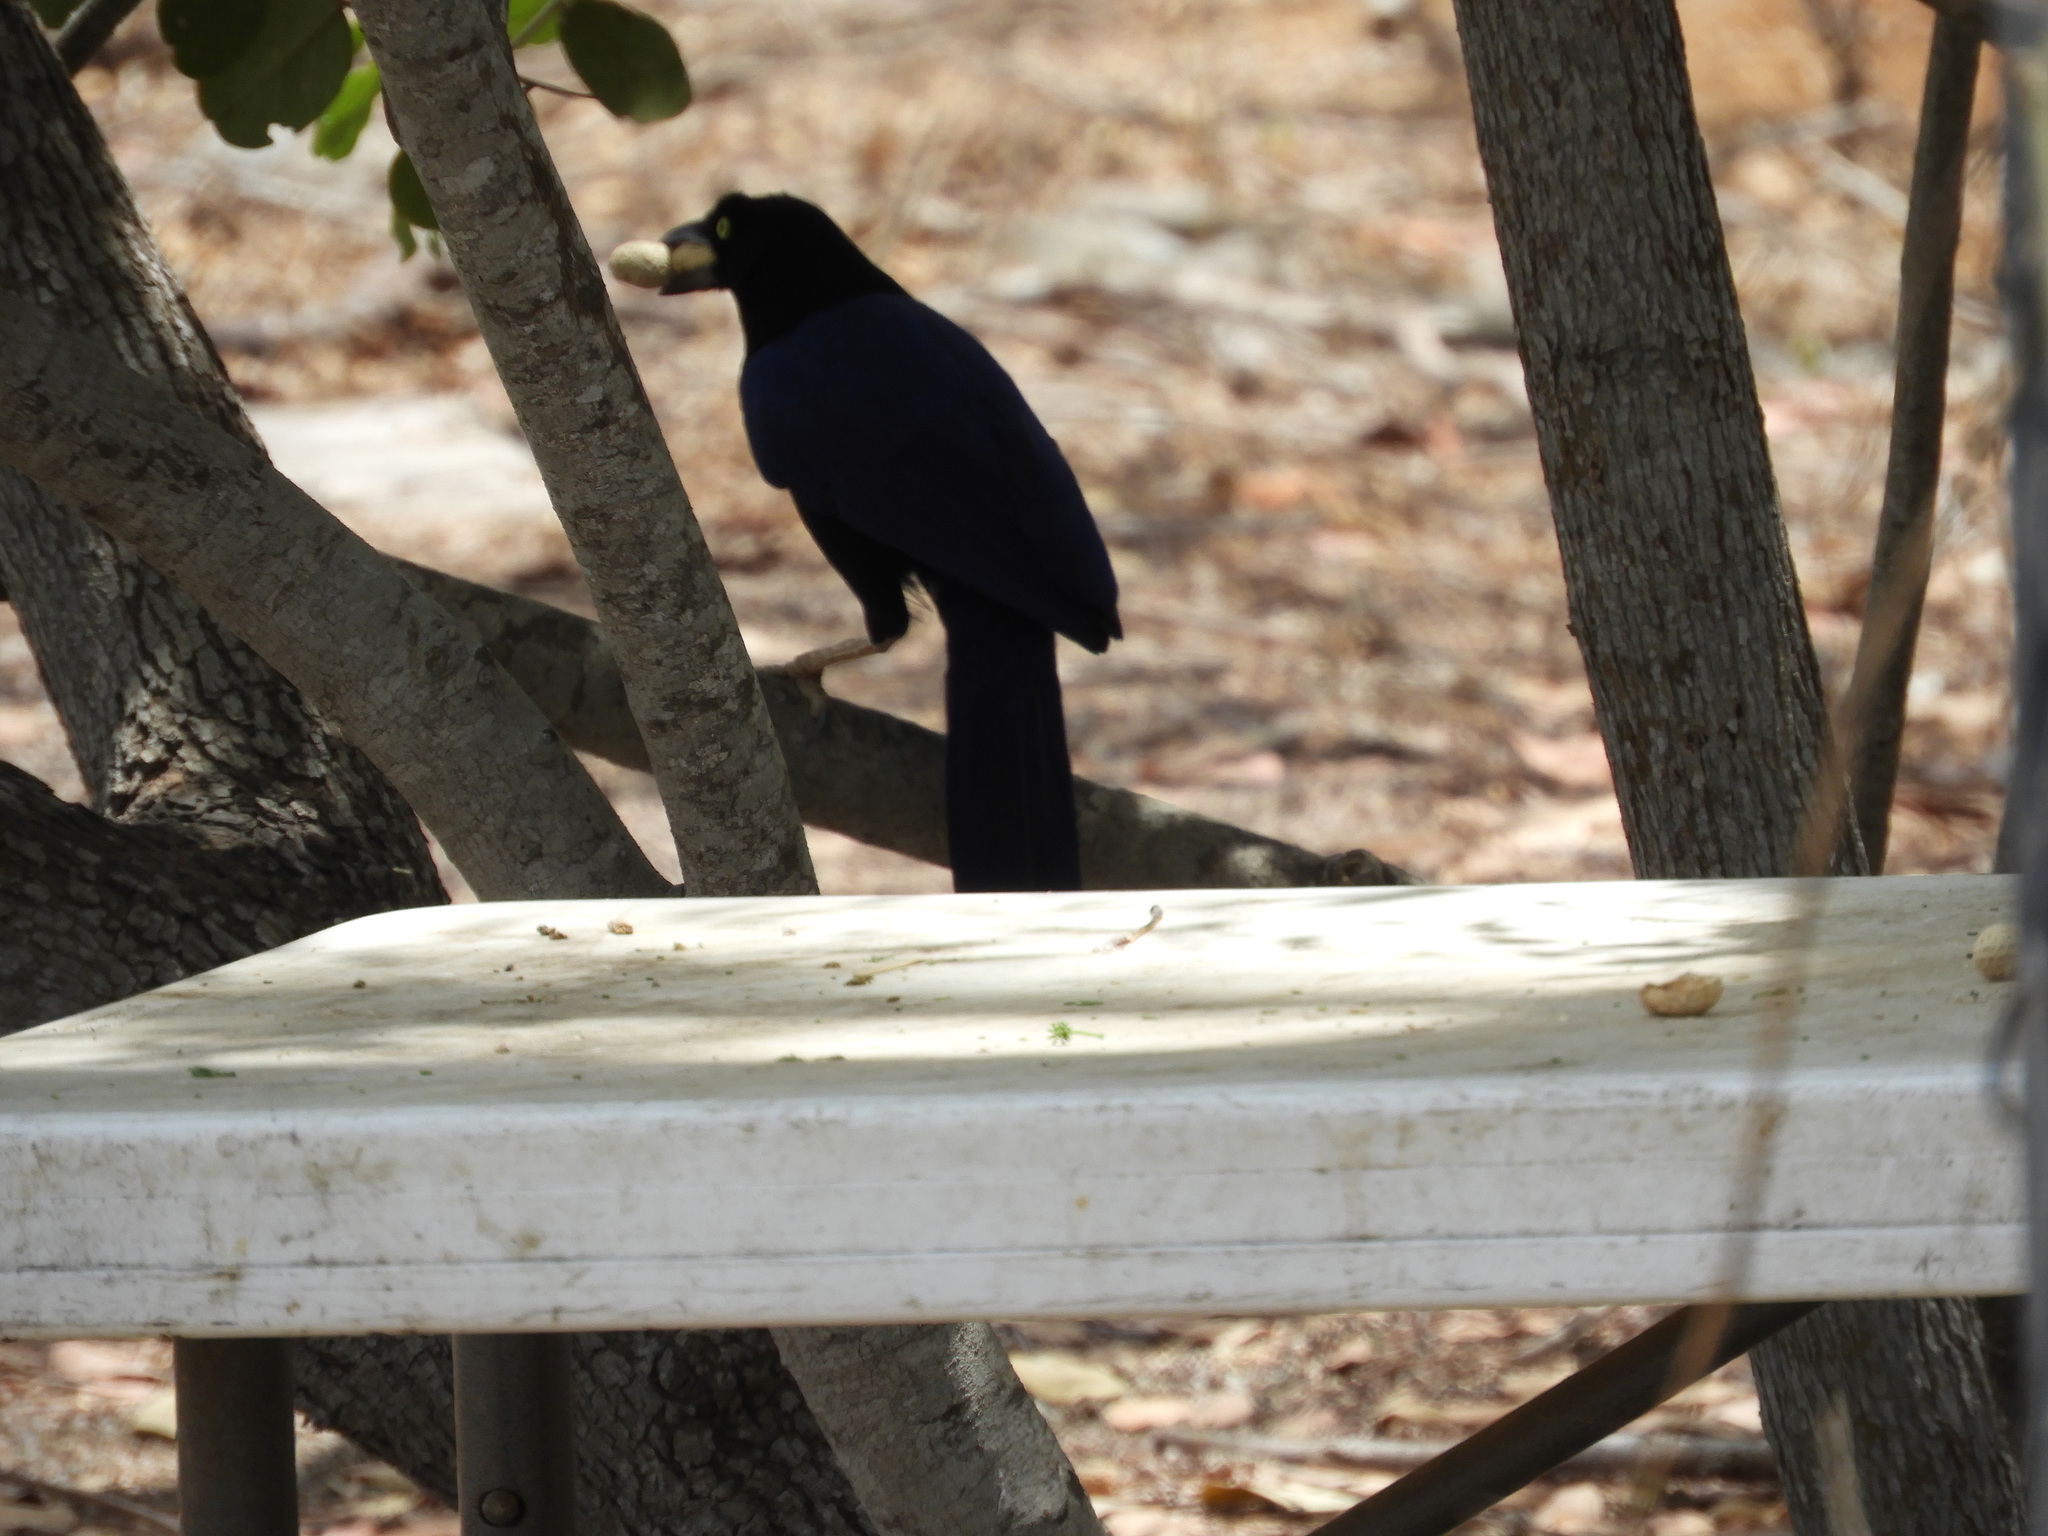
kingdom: Animalia
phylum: Chordata
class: Aves
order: Passeriformes
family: Corvidae
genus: Cyanocorax
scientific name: Cyanocorax beecheii
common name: Purplish-backed jay
